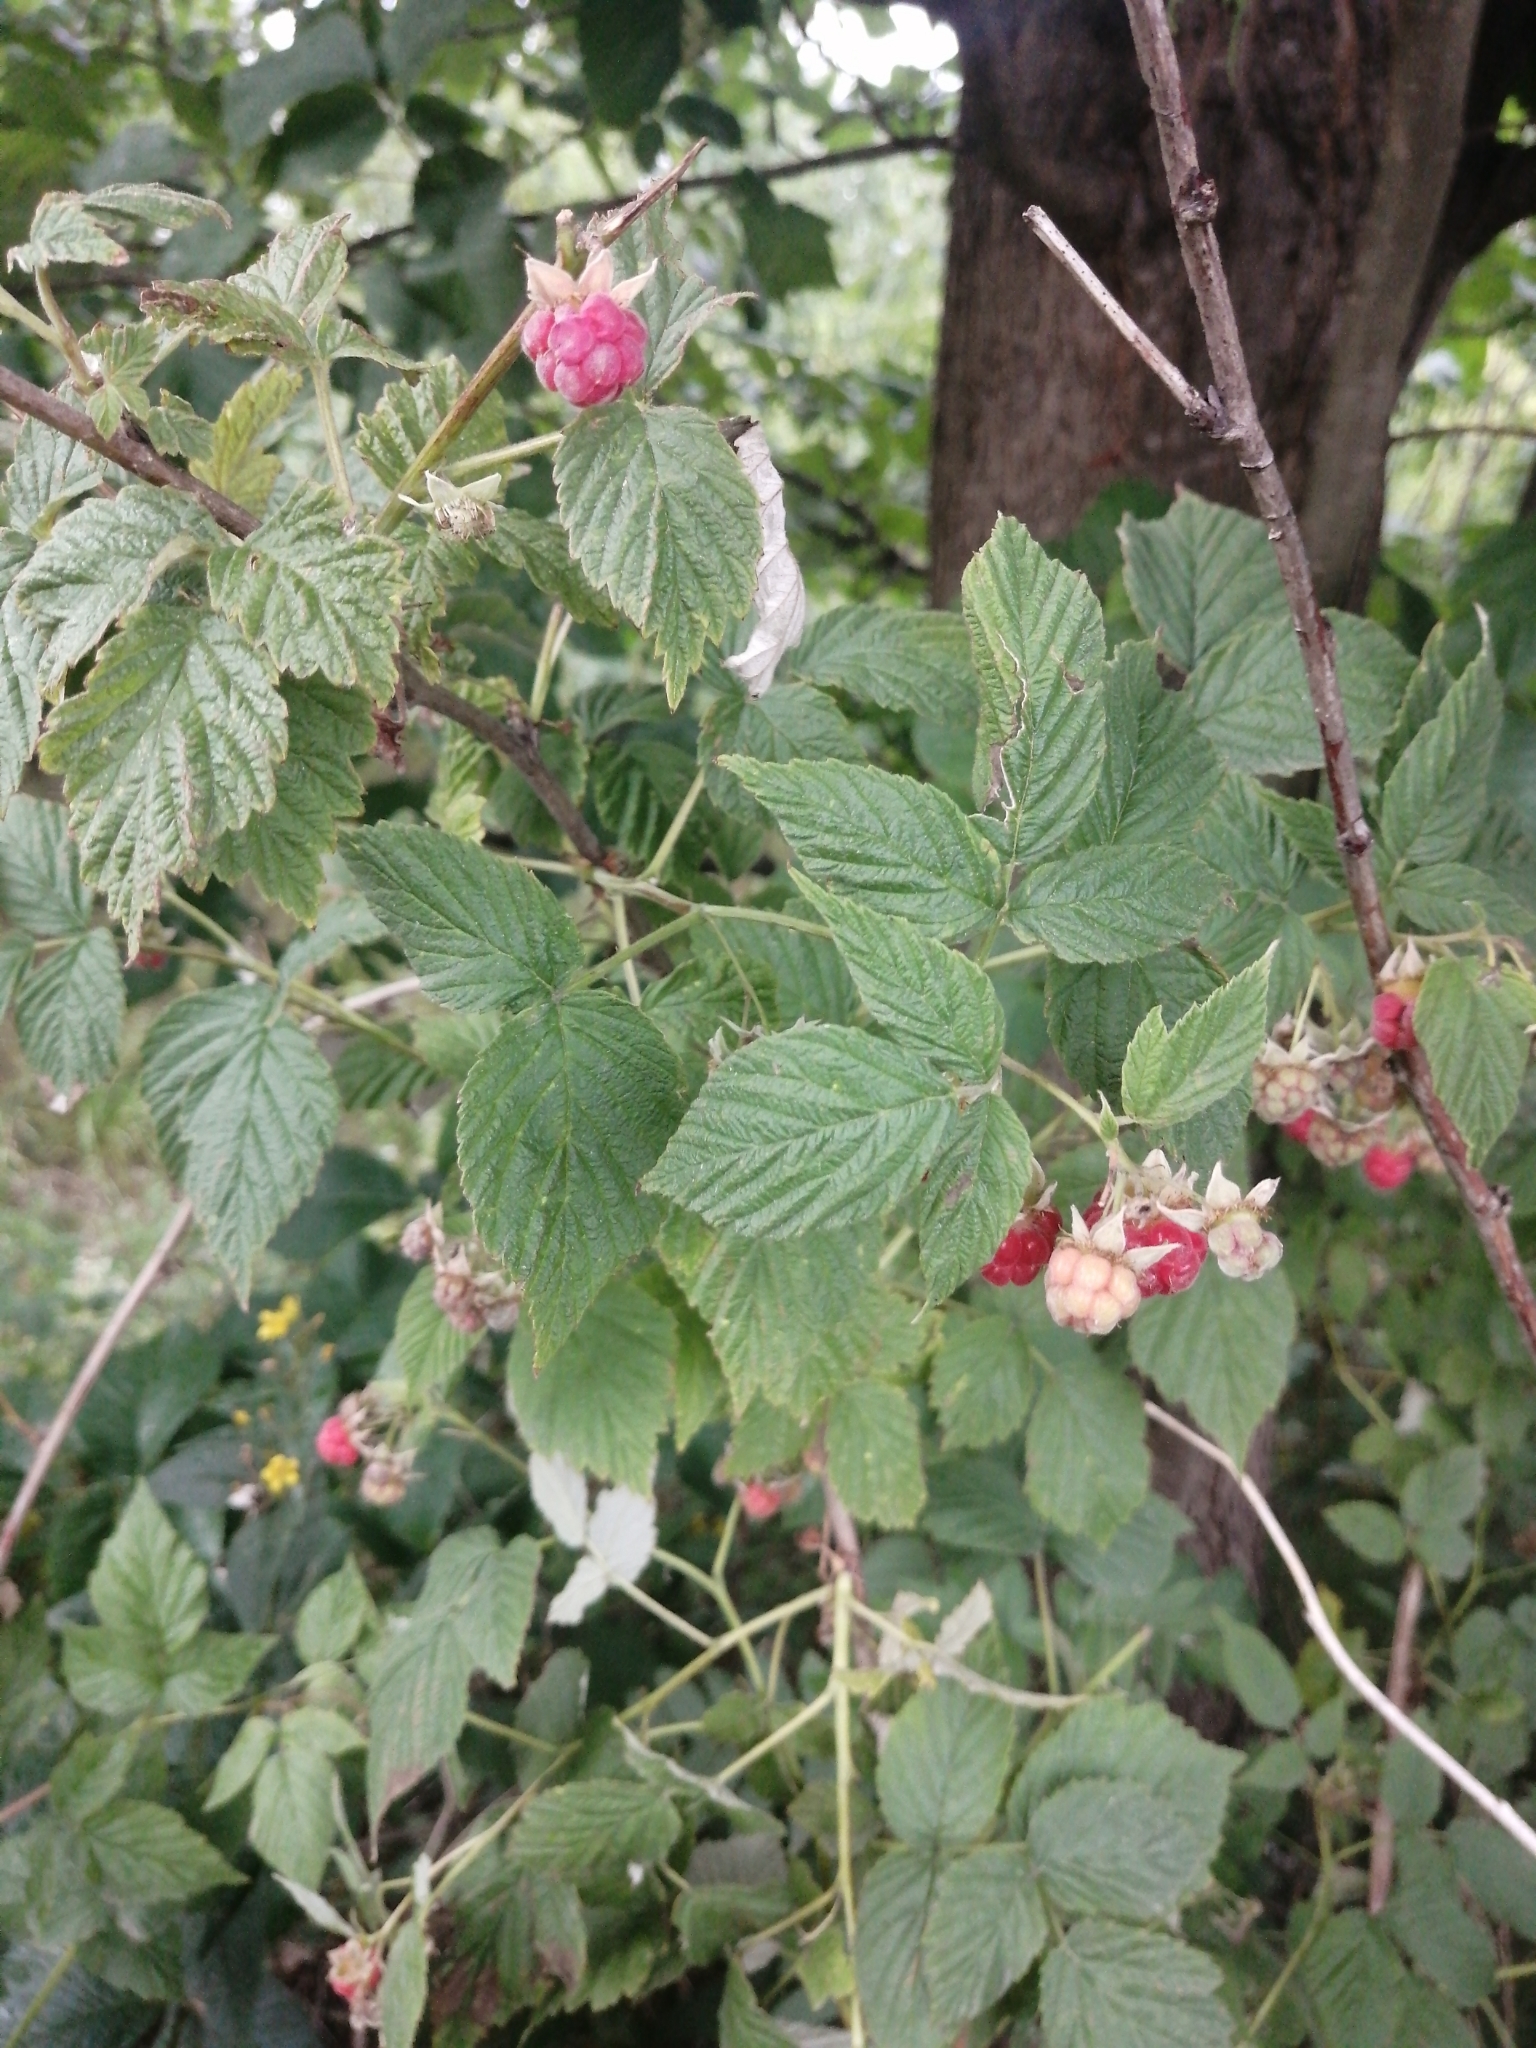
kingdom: Plantae
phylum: Tracheophyta
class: Magnoliopsida
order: Rosales
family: Rosaceae
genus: Rubus
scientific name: Rubus idaeus
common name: Raspberry
